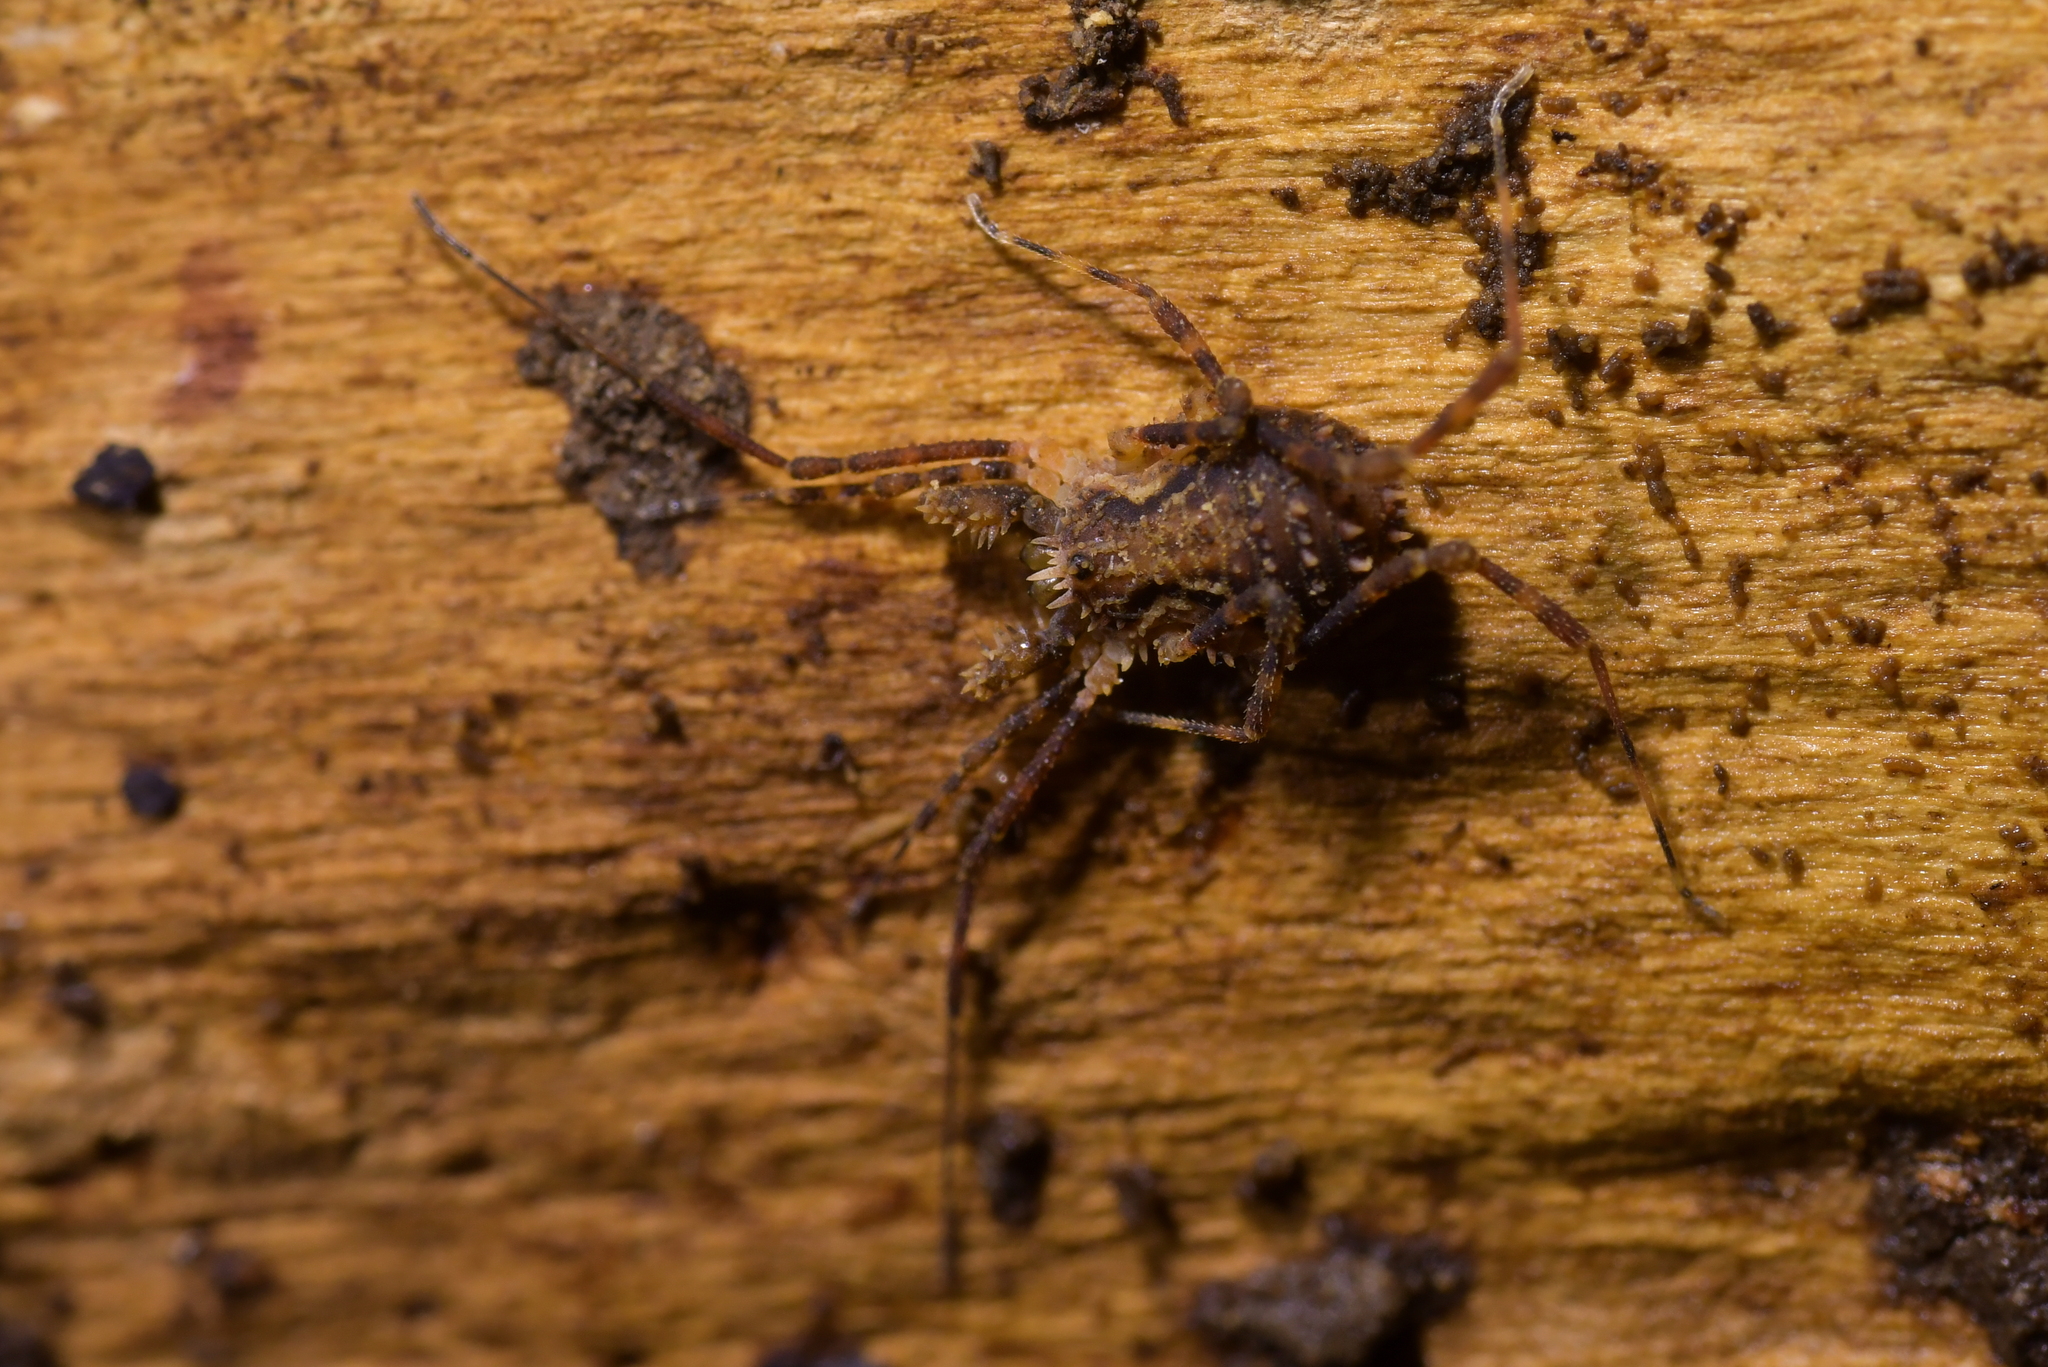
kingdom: Animalia
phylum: Arthropoda
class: Arachnida
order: Opiliones
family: Triaenonychidae
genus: Algidia
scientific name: Algidia nigriflava
